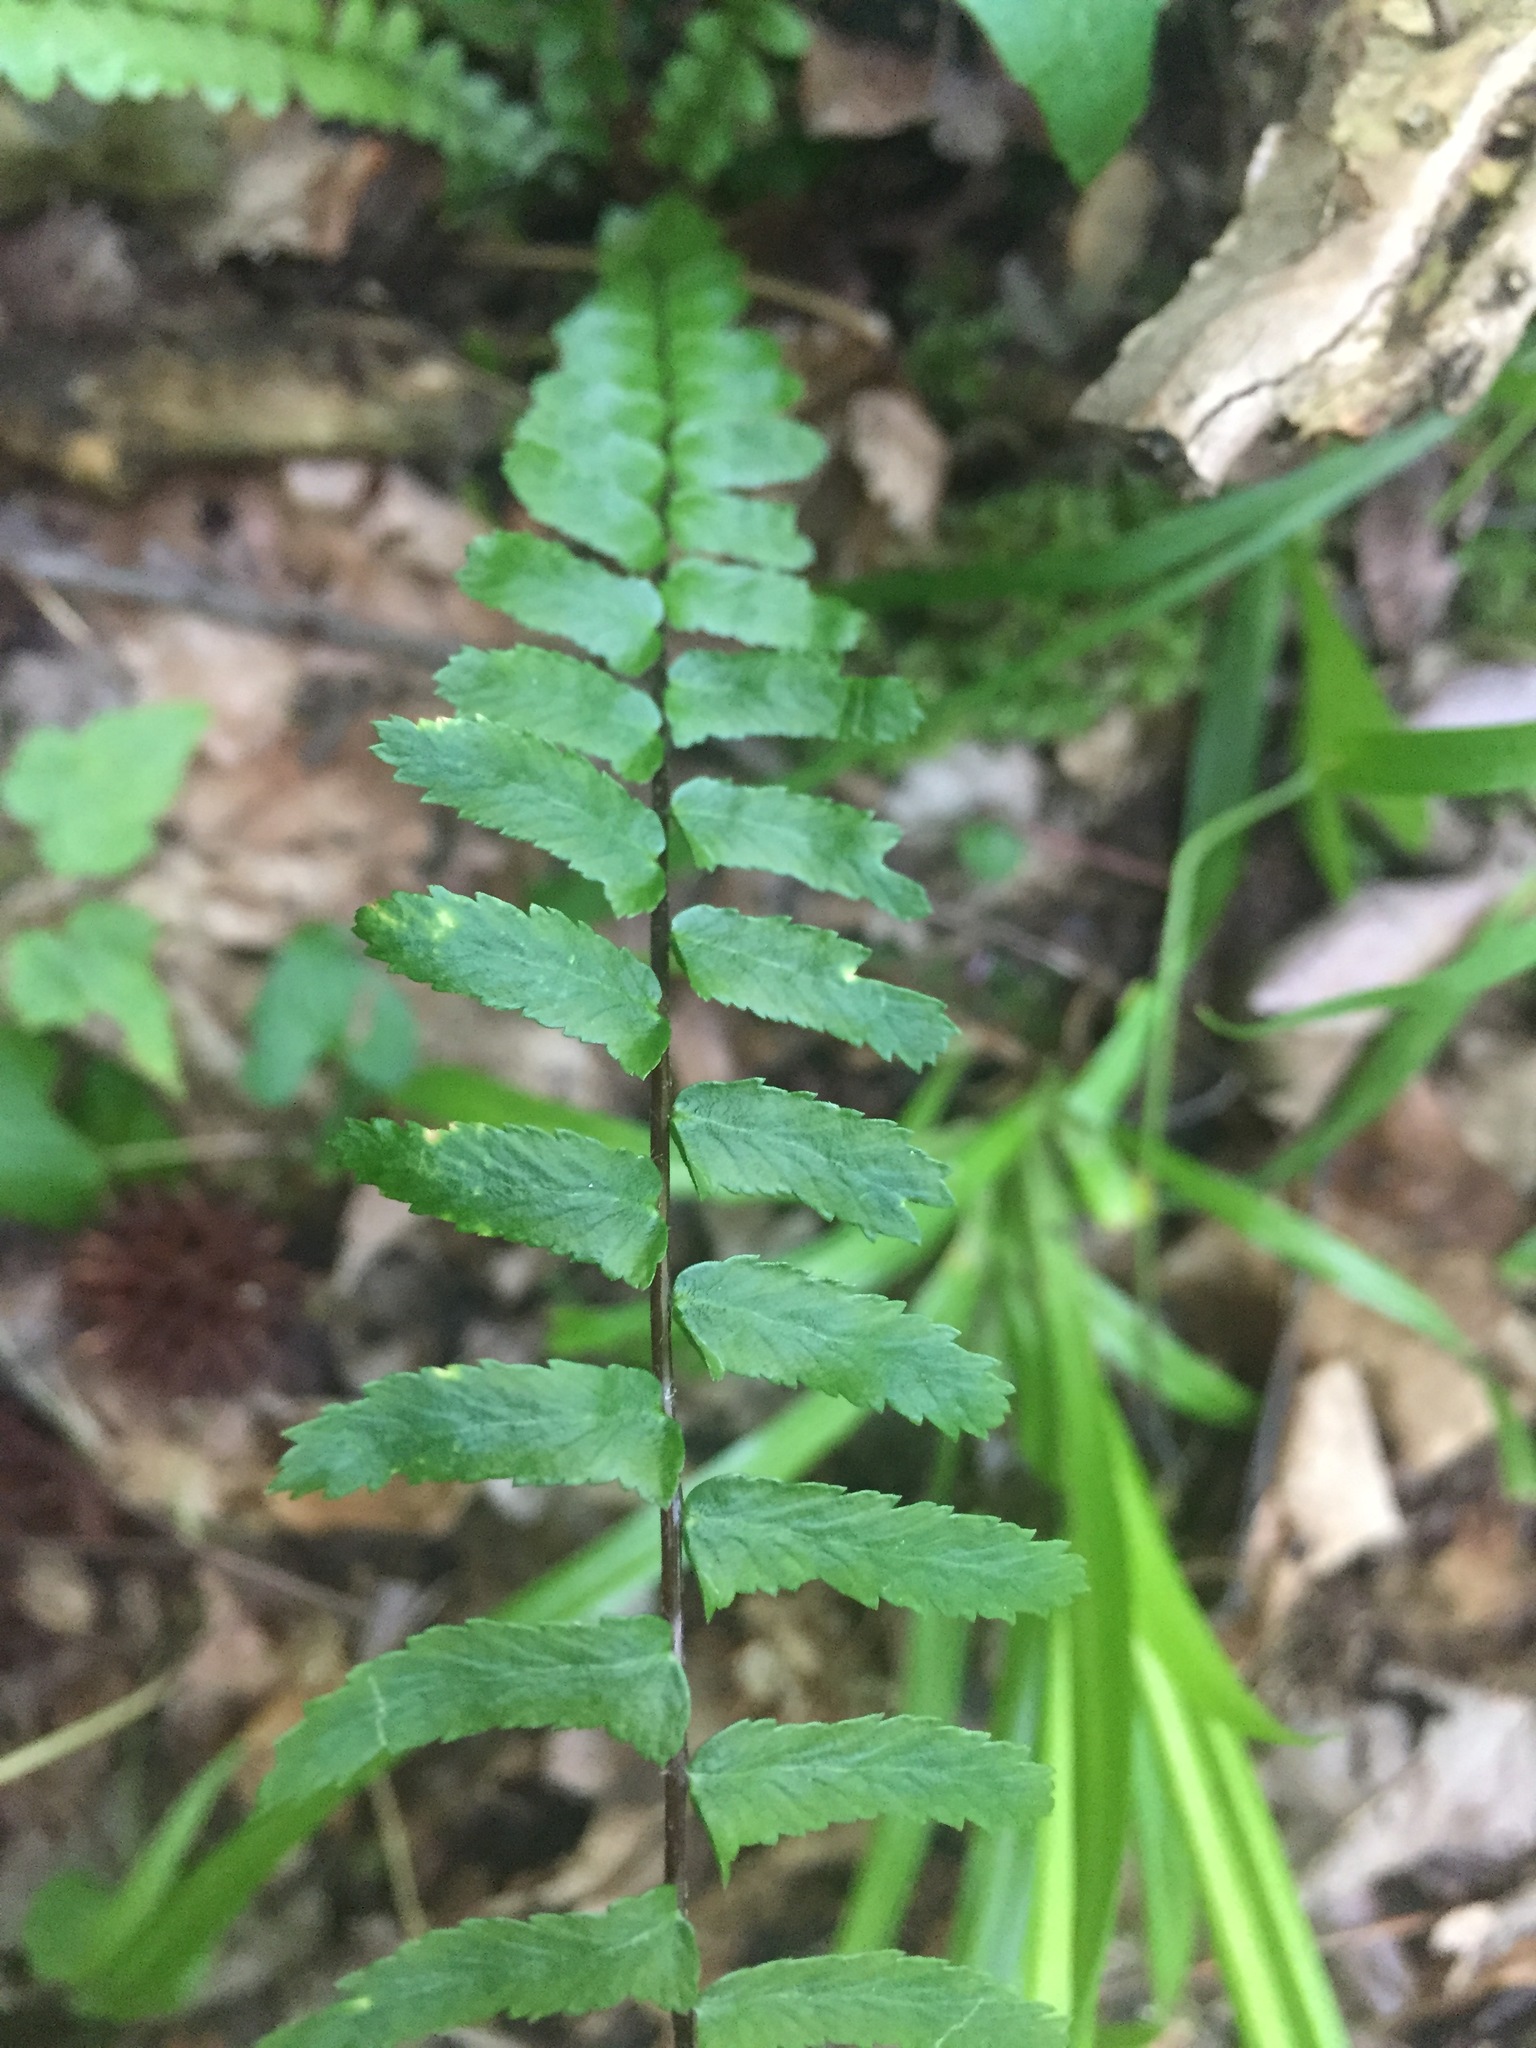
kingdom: Plantae
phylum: Tracheophyta
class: Polypodiopsida
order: Polypodiales
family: Aspleniaceae
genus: Asplenium
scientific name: Asplenium platyneuron
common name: Ebony spleenwort
